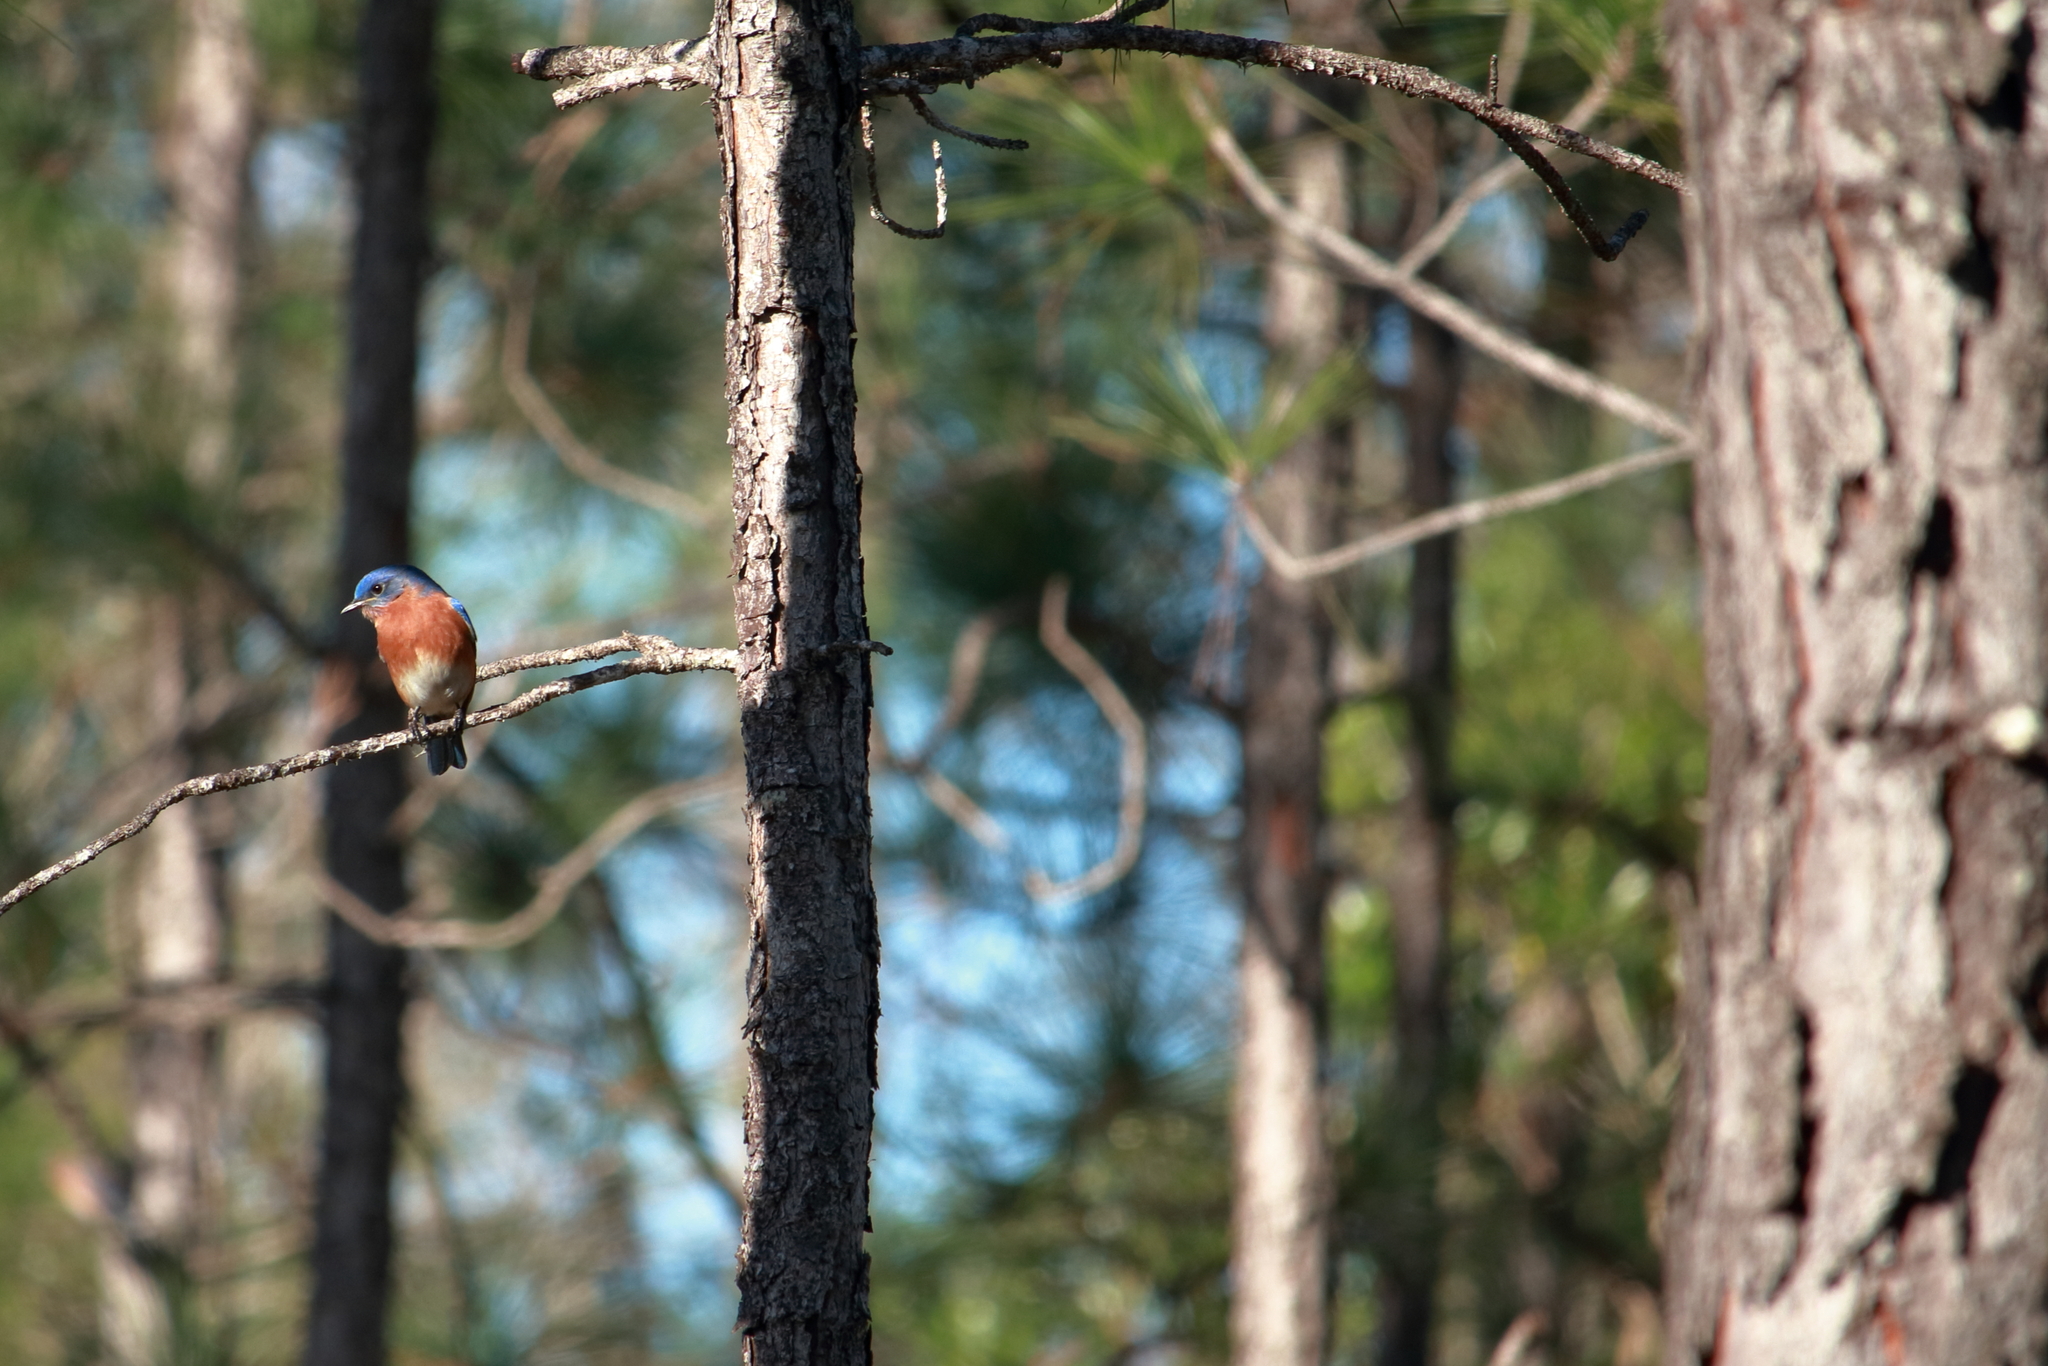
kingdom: Animalia
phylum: Chordata
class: Aves
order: Passeriformes
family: Turdidae
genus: Sialia
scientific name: Sialia sialis
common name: Eastern bluebird
